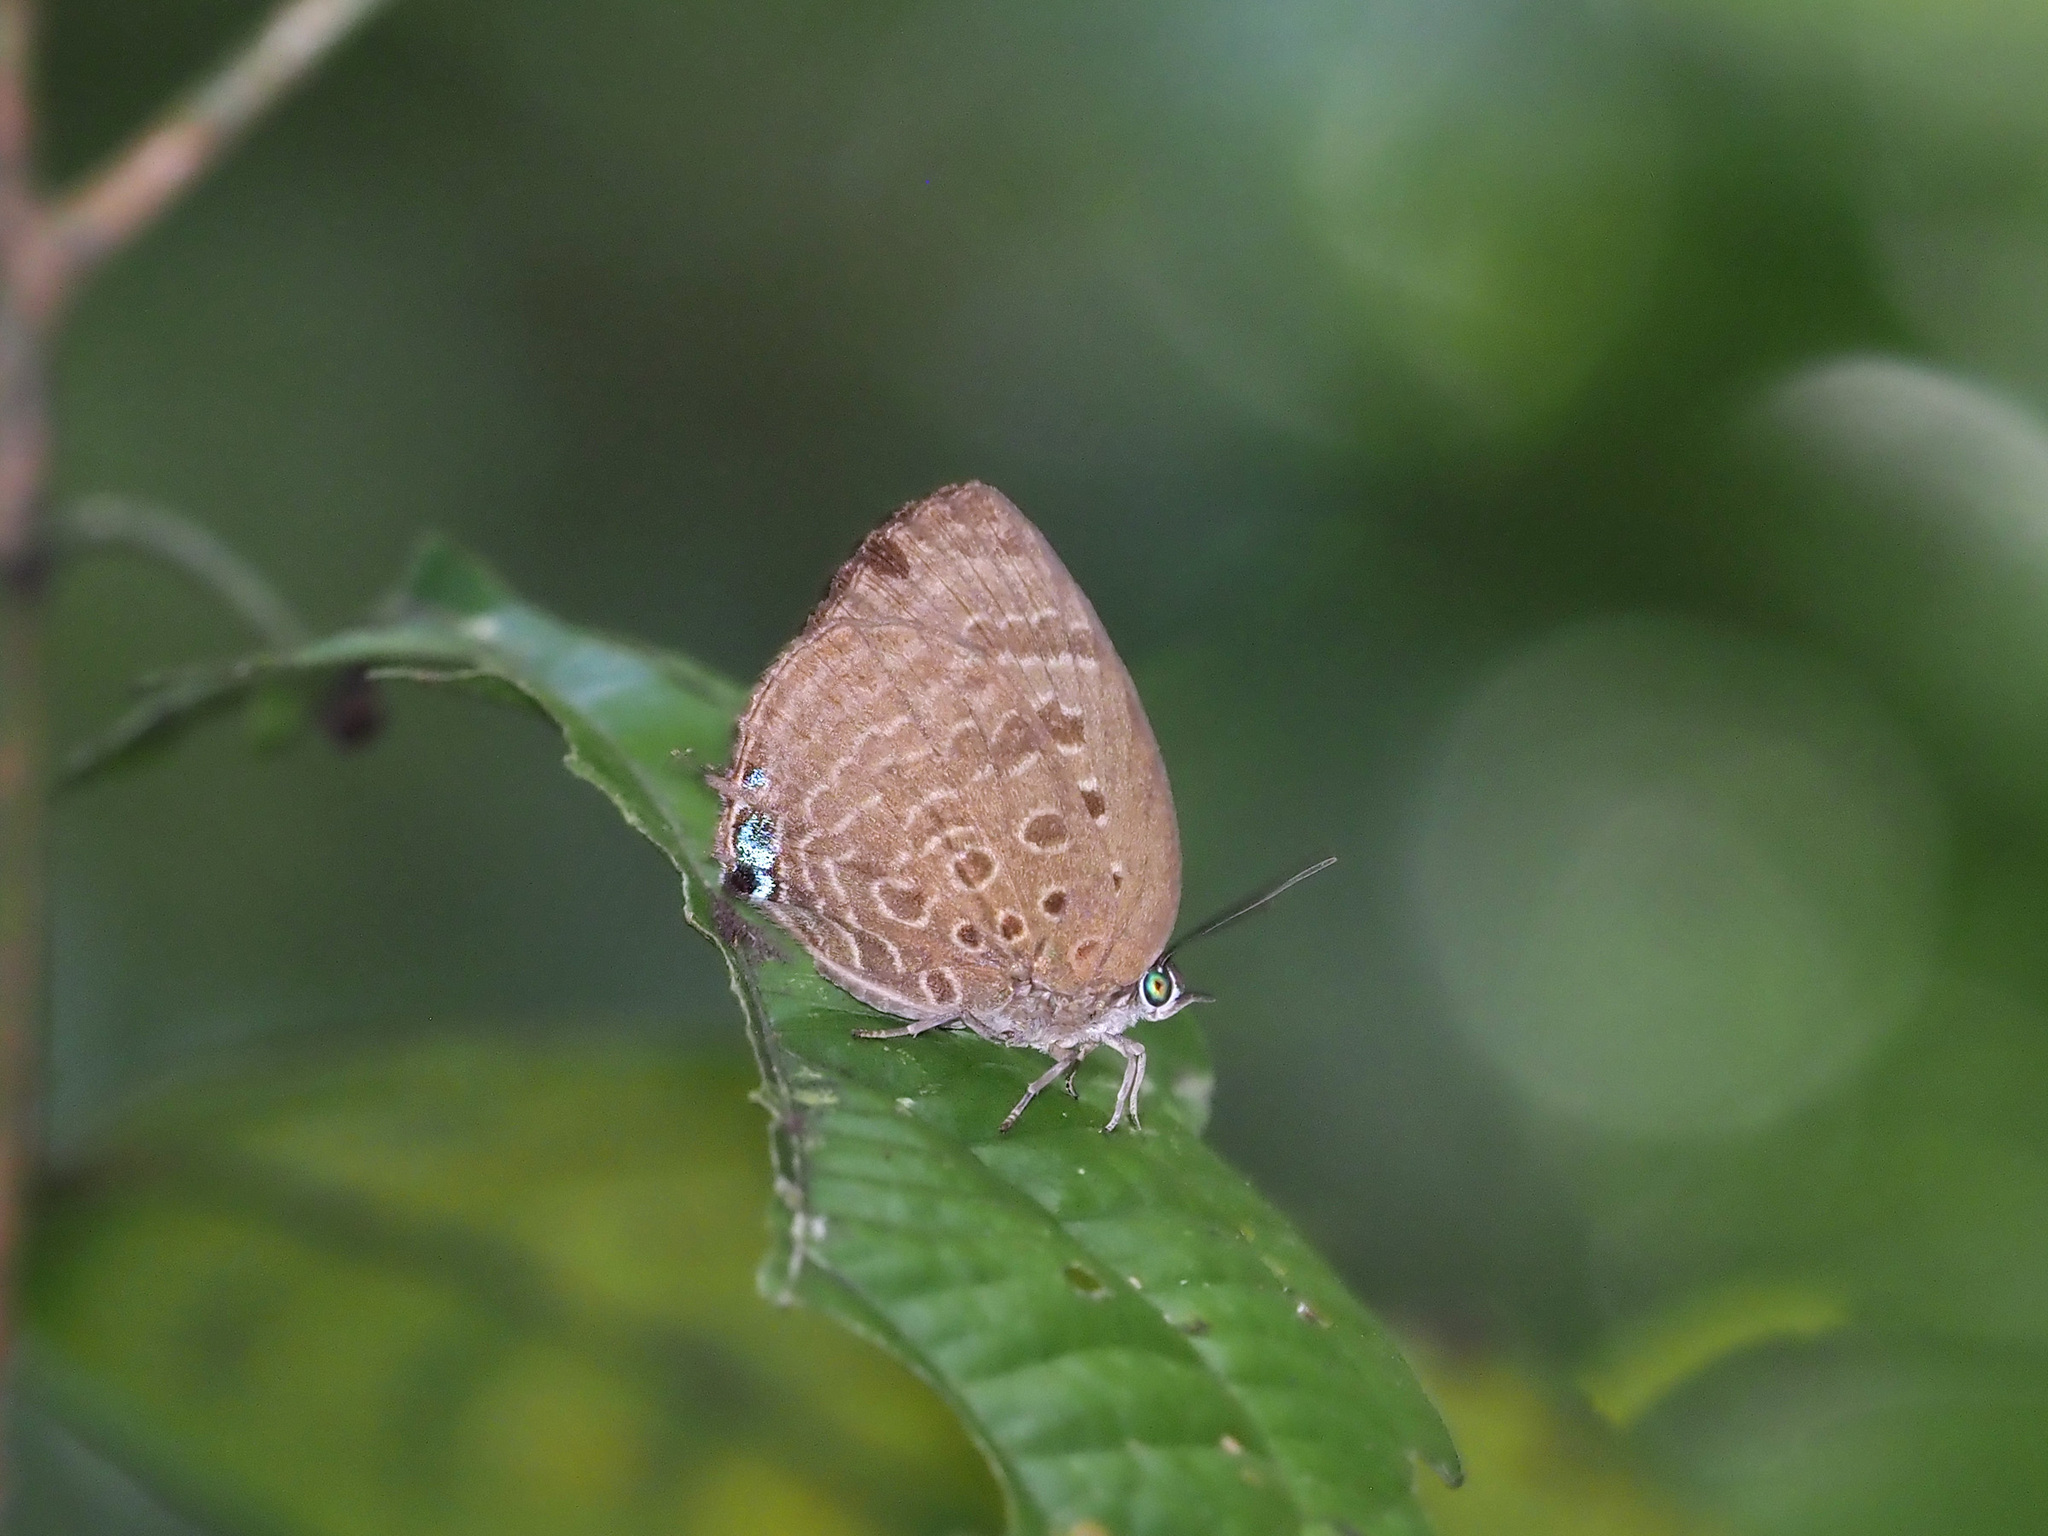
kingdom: Animalia
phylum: Arthropoda
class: Insecta
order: Lepidoptera
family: Lycaenidae
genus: Arhopala
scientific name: Arhopala barami
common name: Wood's oakblue
